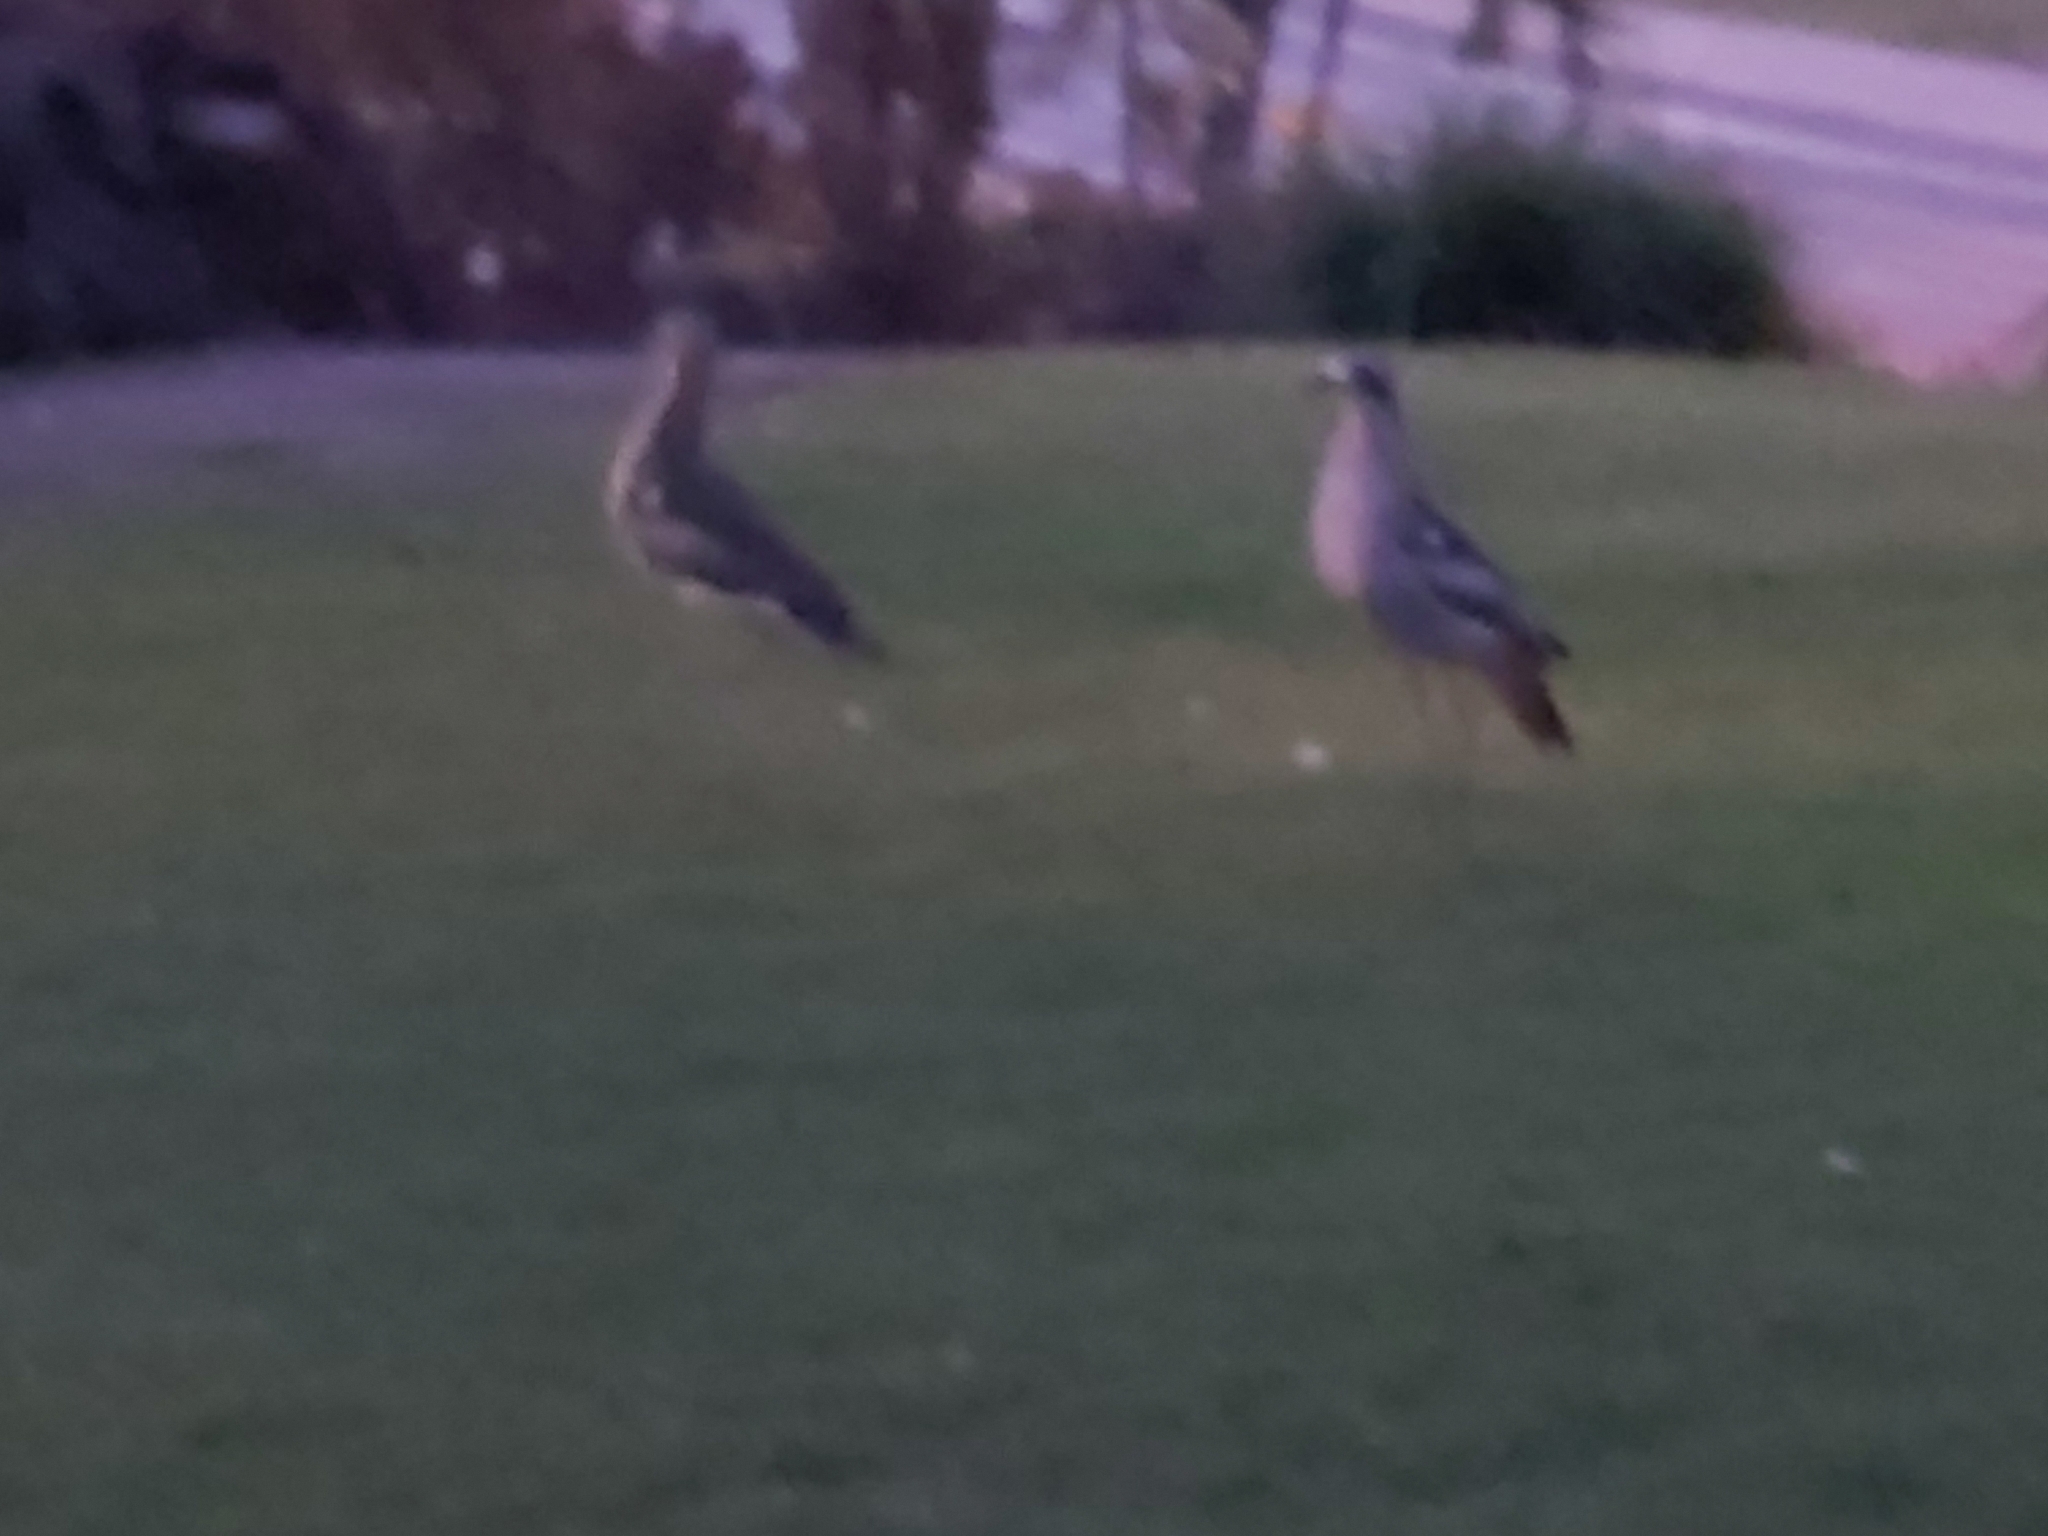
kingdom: Animalia
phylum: Chordata
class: Aves
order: Charadriiformes
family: Burhinidae
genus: Burhinus
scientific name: Burhinus grallarius
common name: Bush stone-curlew
